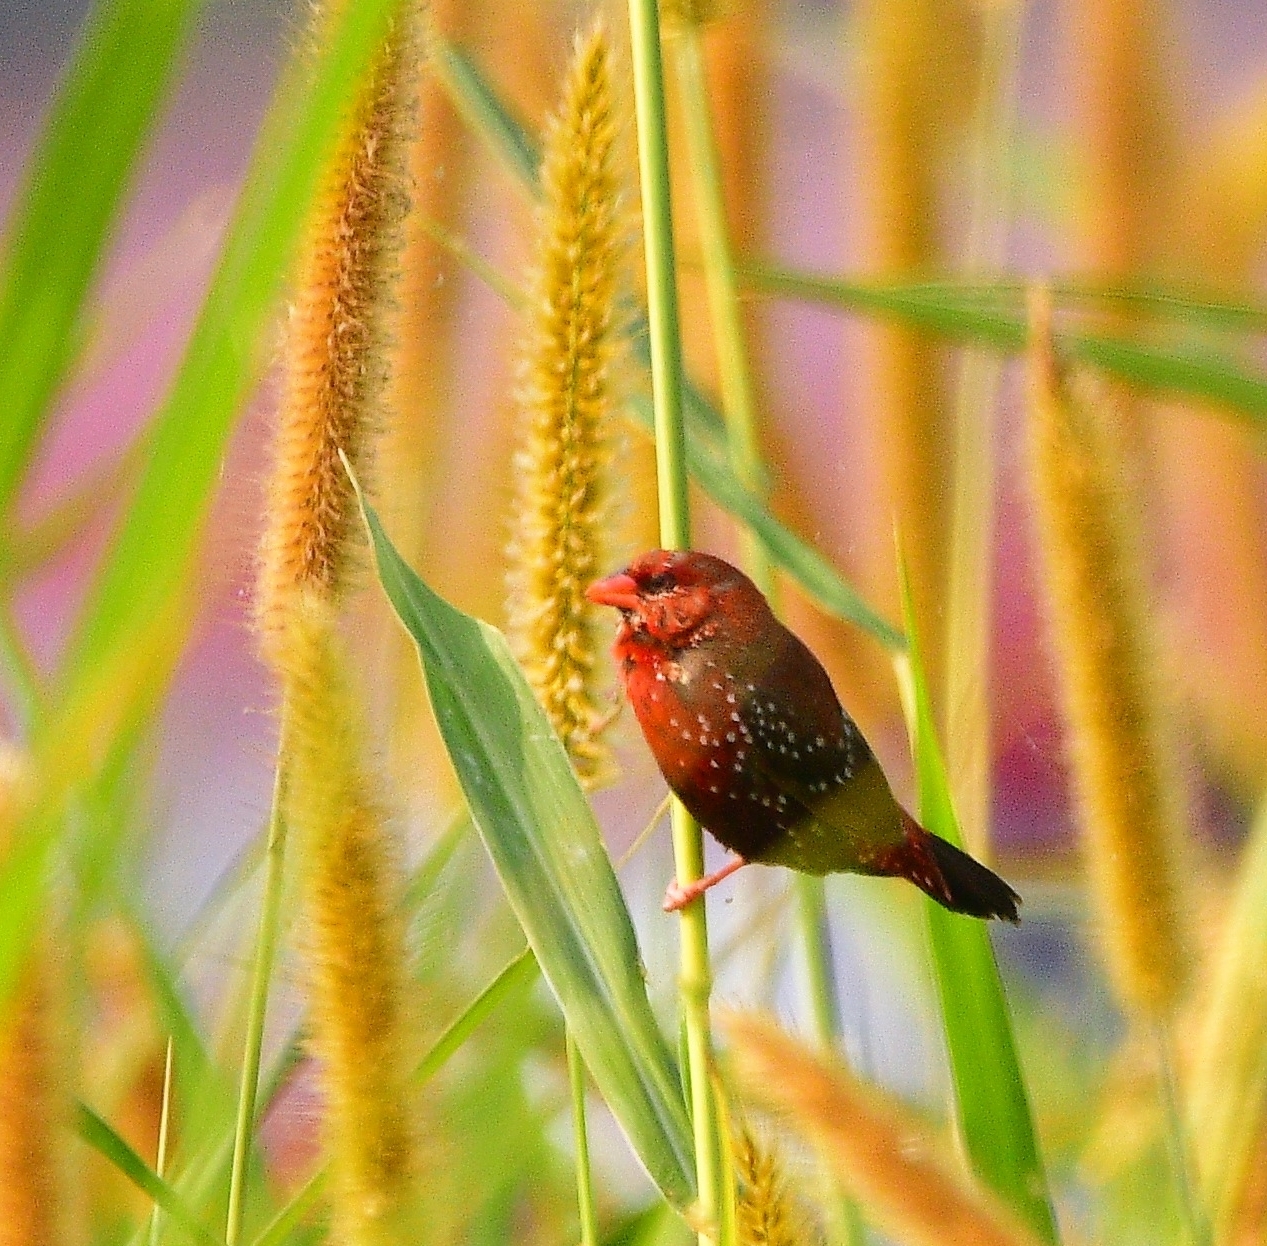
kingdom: Animalia
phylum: Chordata
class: Aves
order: Passeriformes
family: Estrildidae
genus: Amandava
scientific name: Amandava amandava
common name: Red avadavat
